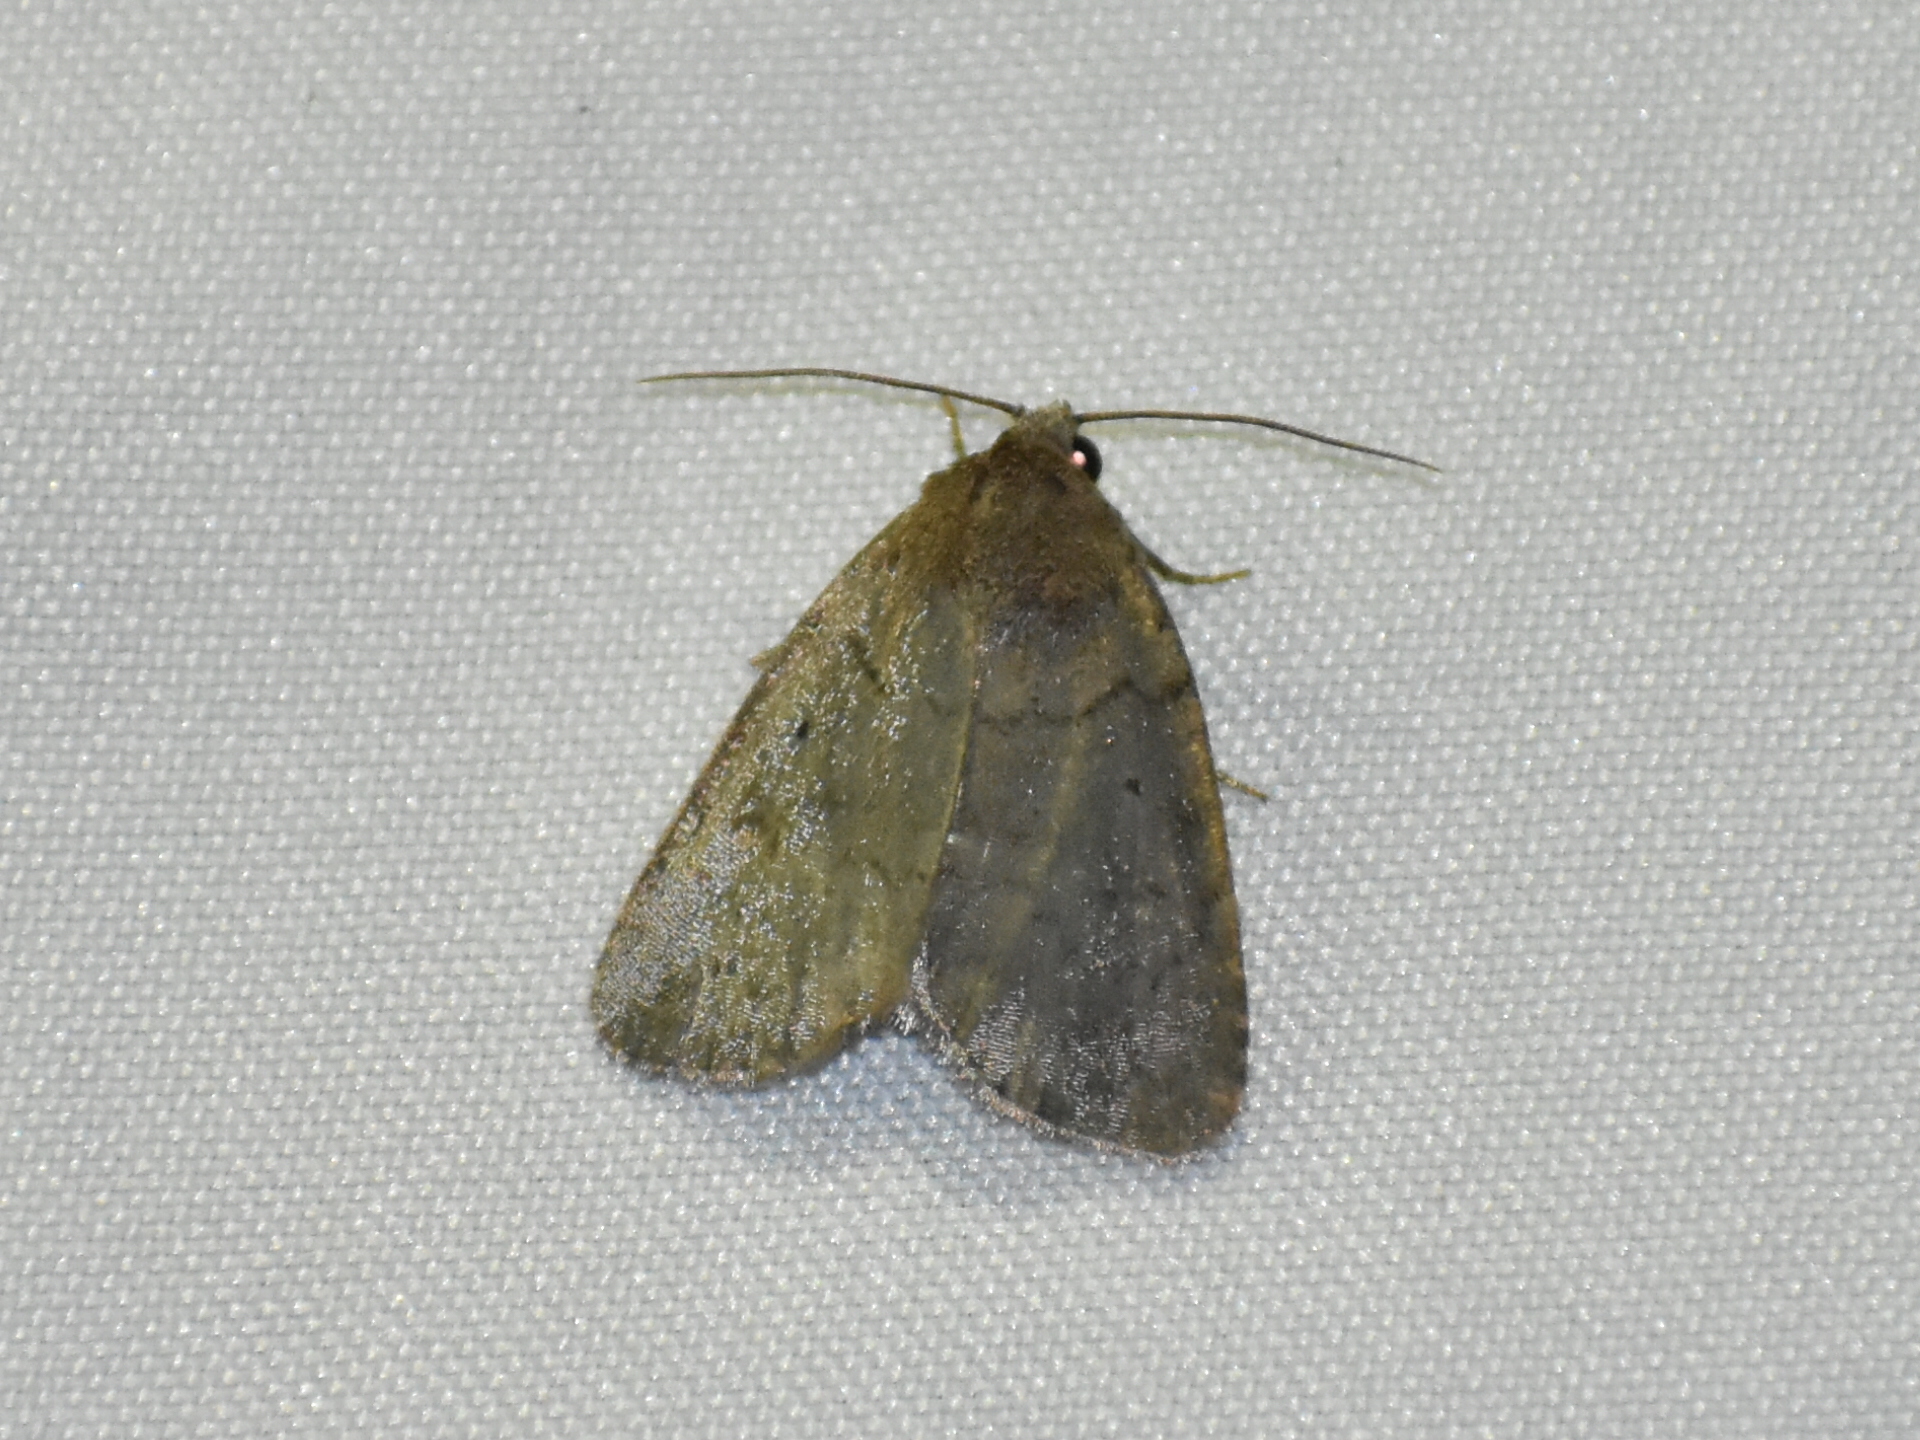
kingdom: Animalia
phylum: Arthropoda
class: Insecta
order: Lepidoptera
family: Noctuidae
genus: Athetis
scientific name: Athetis tarda
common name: Slowpoke moth
